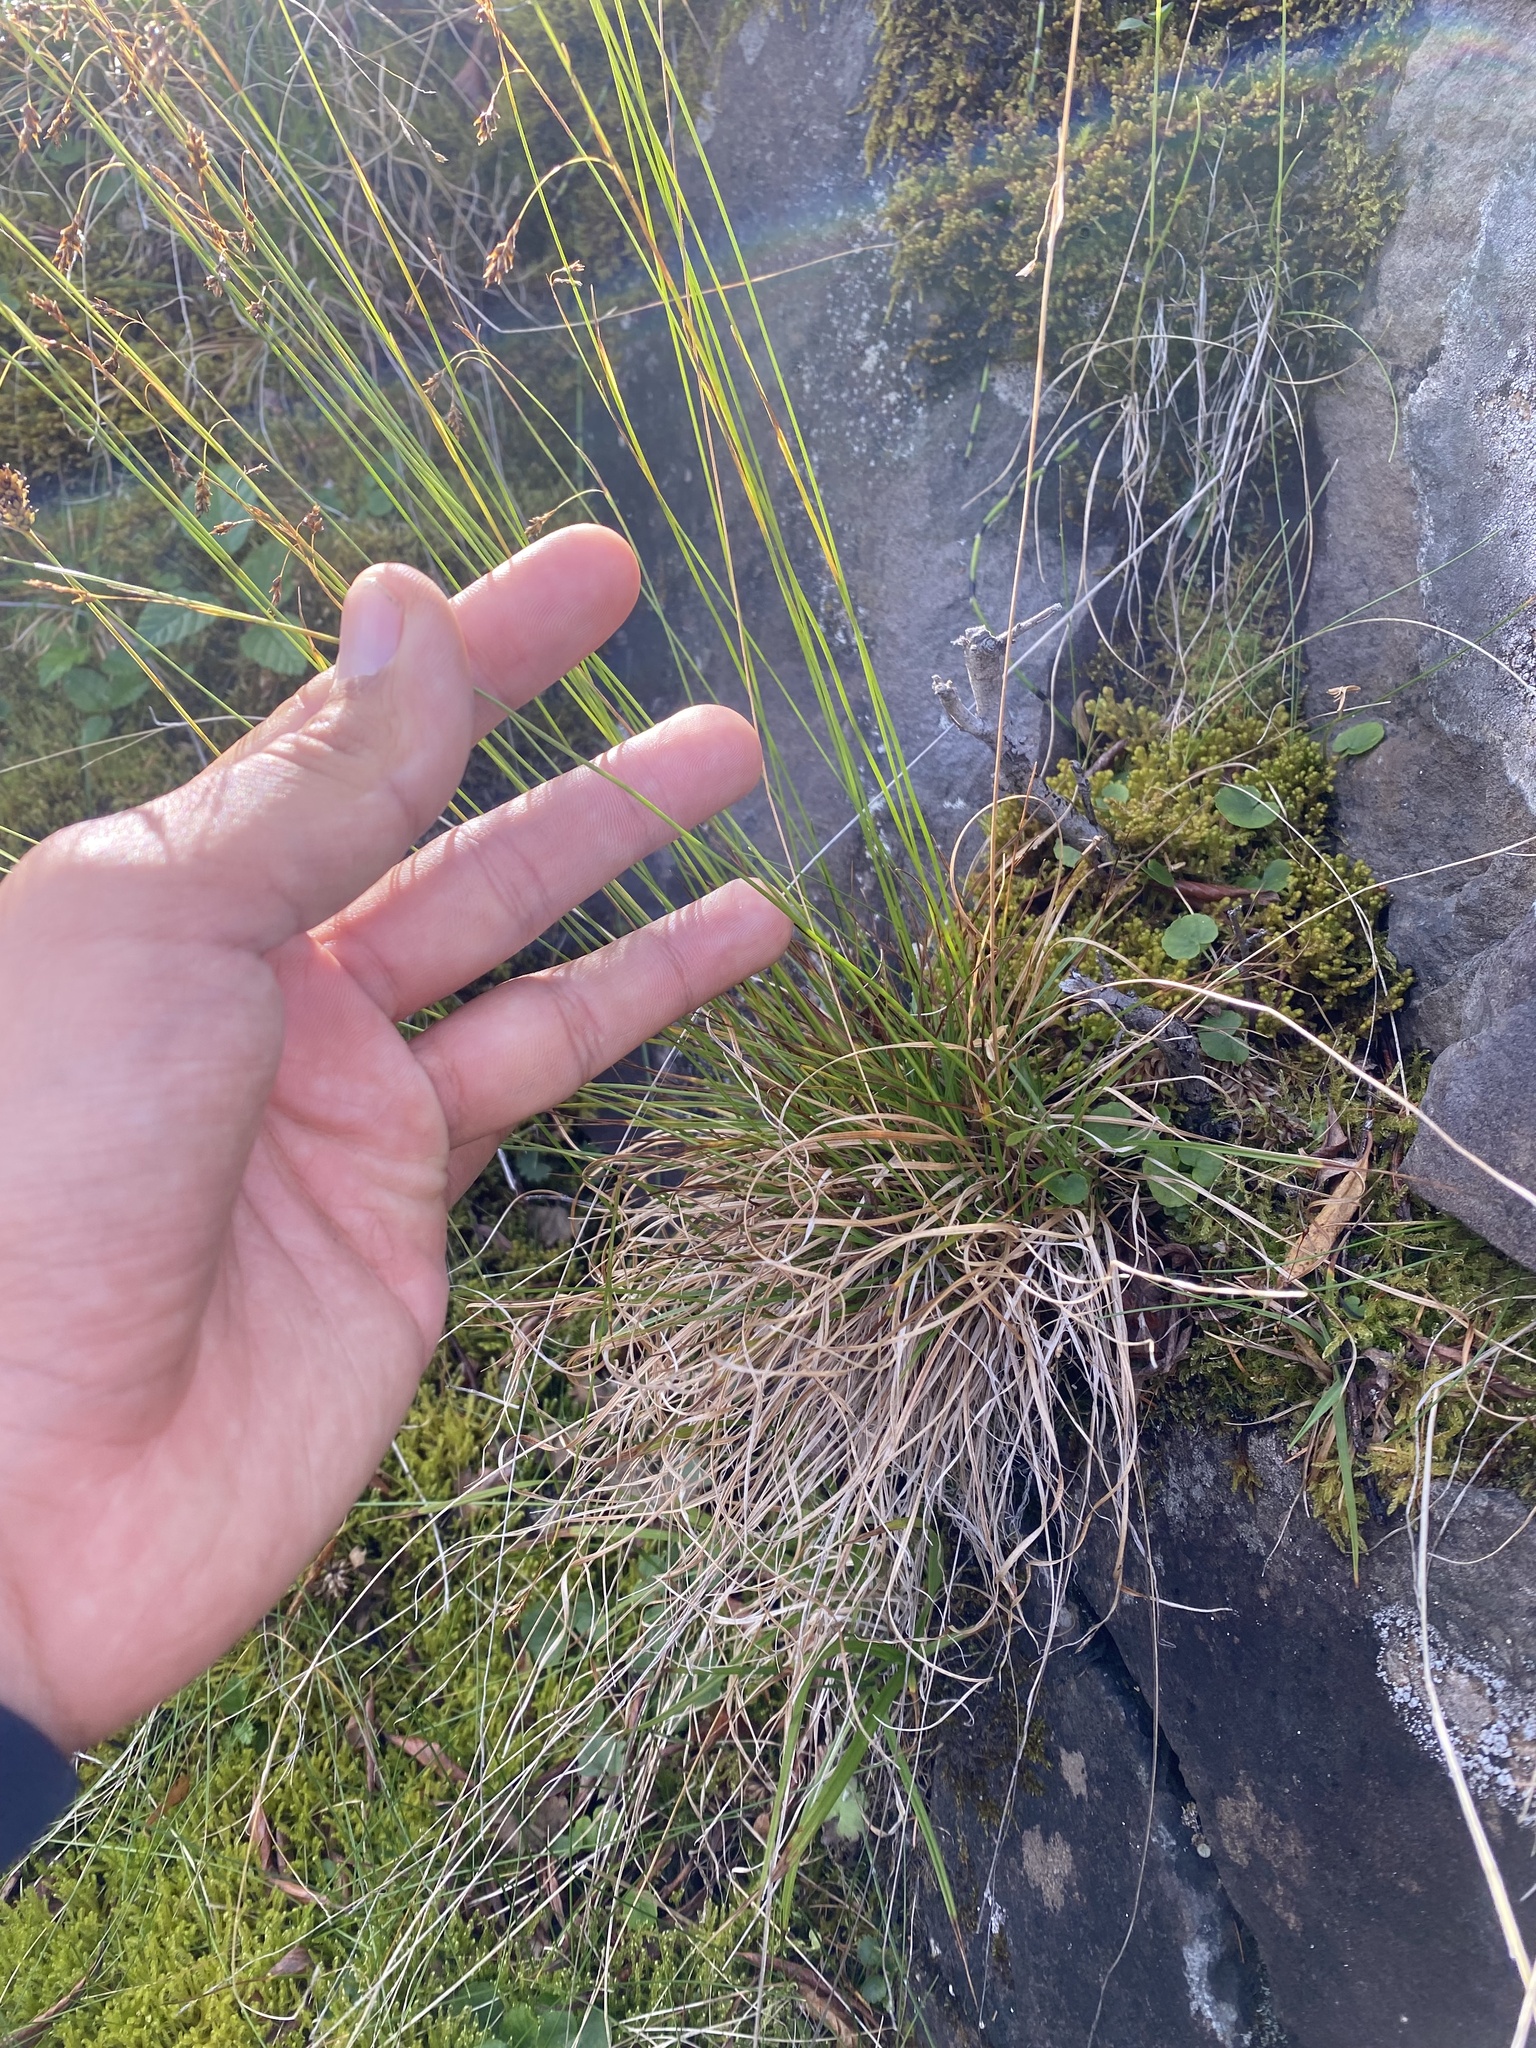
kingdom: Plantae
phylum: Tracheophyta
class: Liliopsida
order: Poales
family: Cyperaceae
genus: Carex
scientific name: Carex capillaris
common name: Hair sedge
